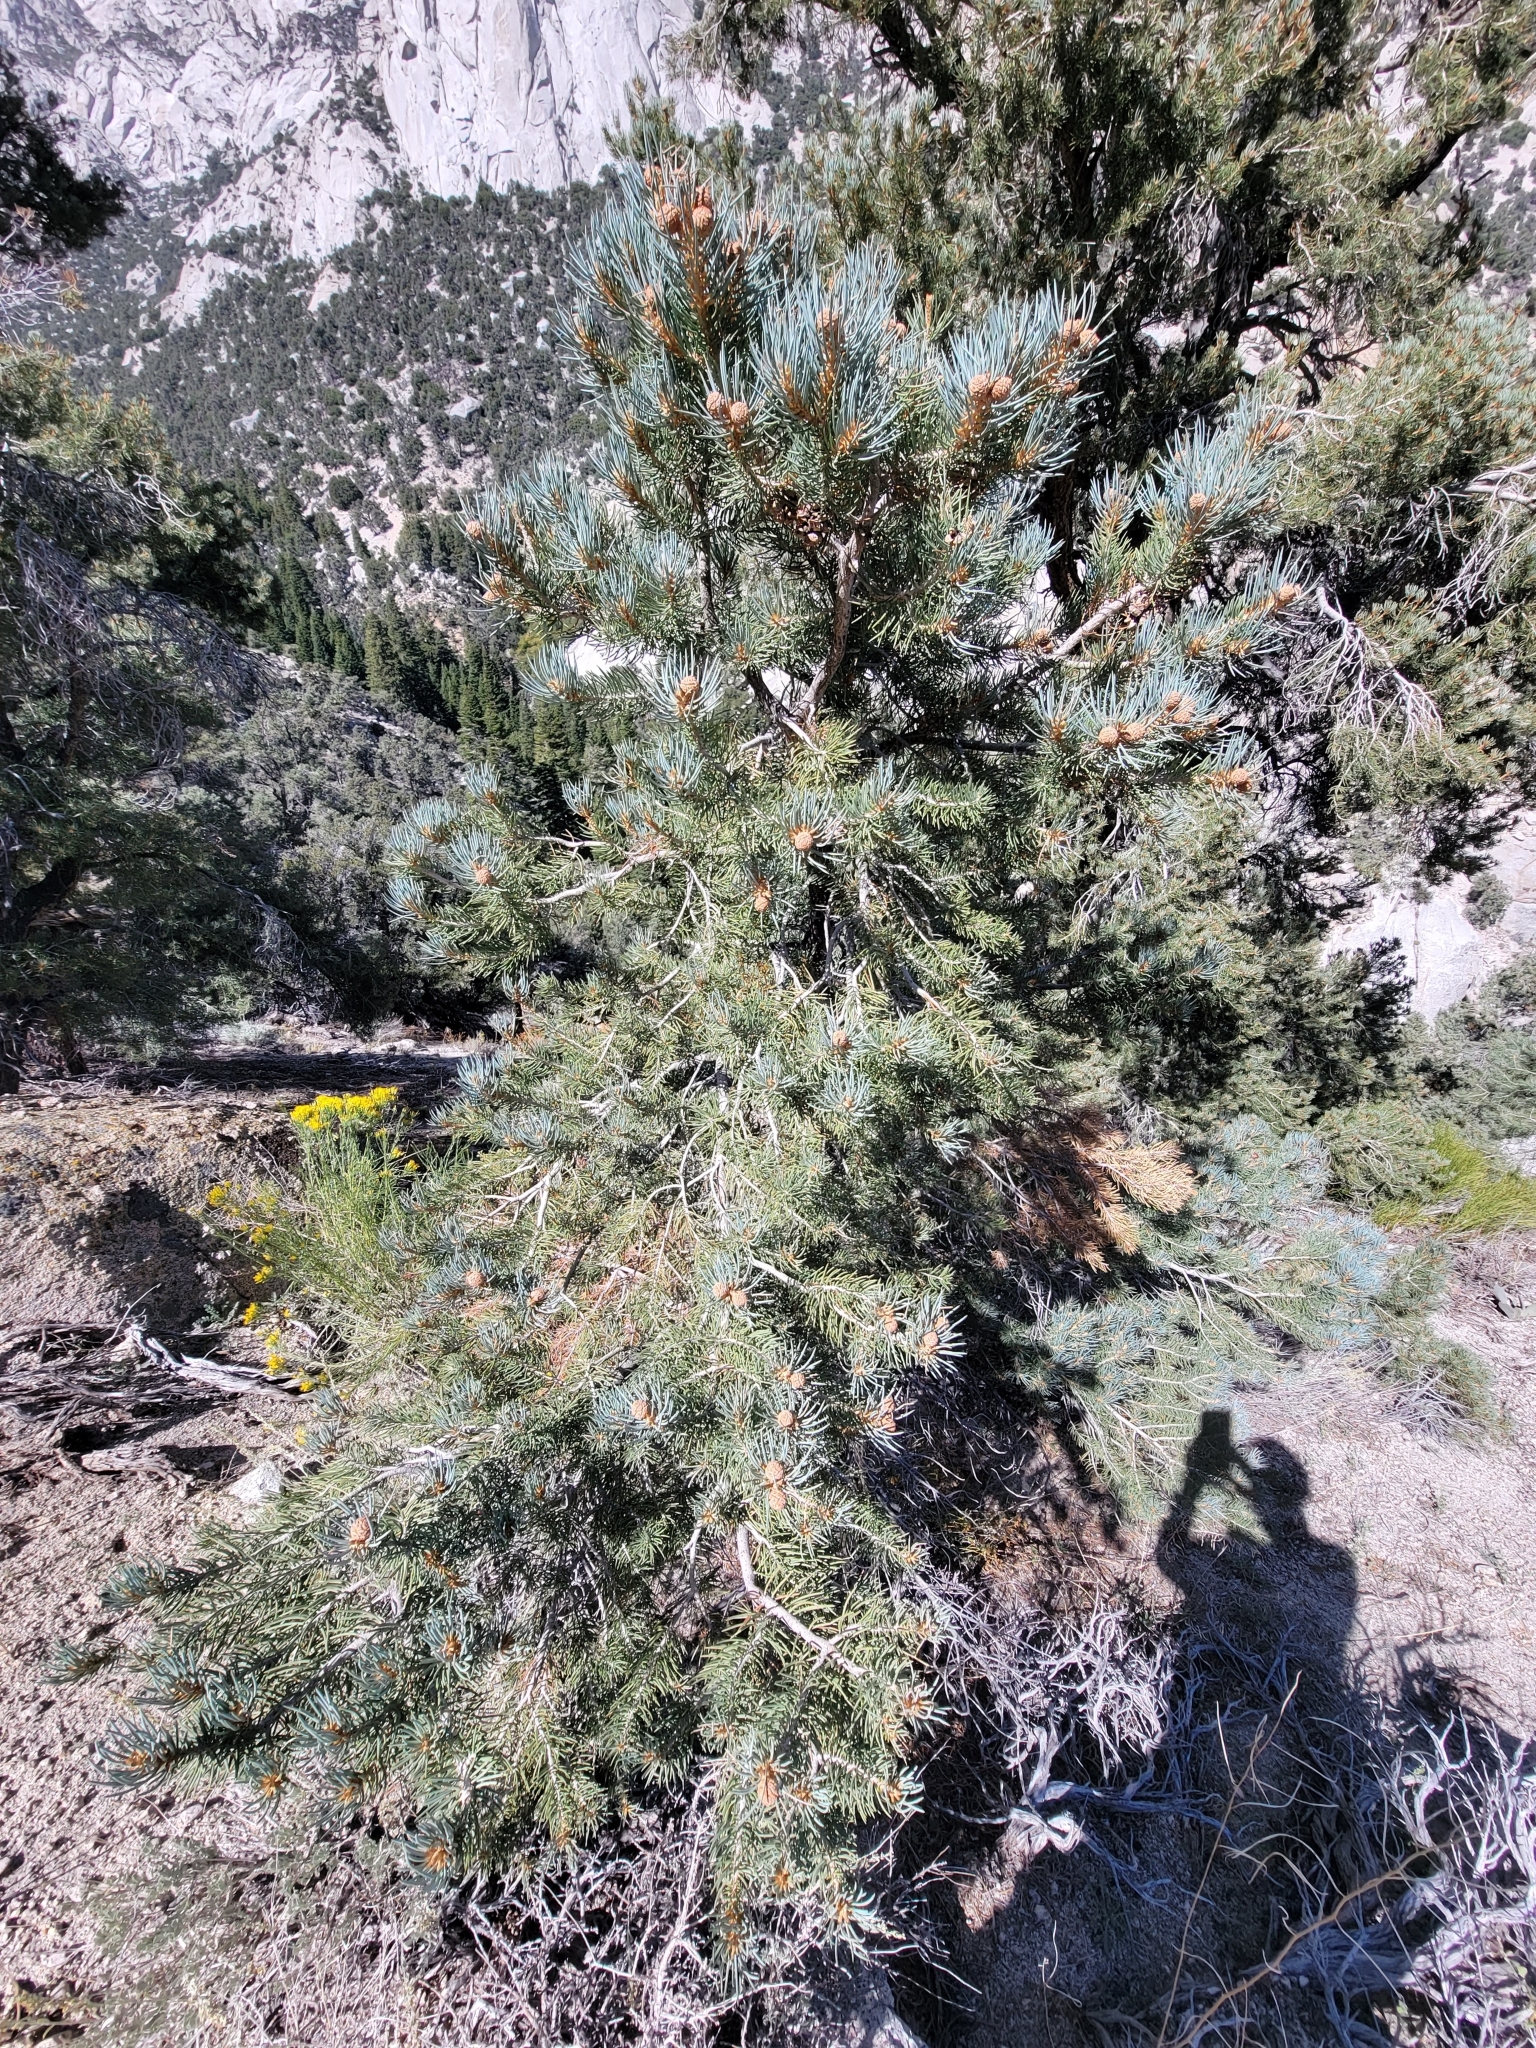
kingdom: Plantae
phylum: Tracheophyta
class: Pinopsida
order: Pinales
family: Pinaceae
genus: Pinus
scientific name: Pinus monophylla
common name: One-leaved nut pine
